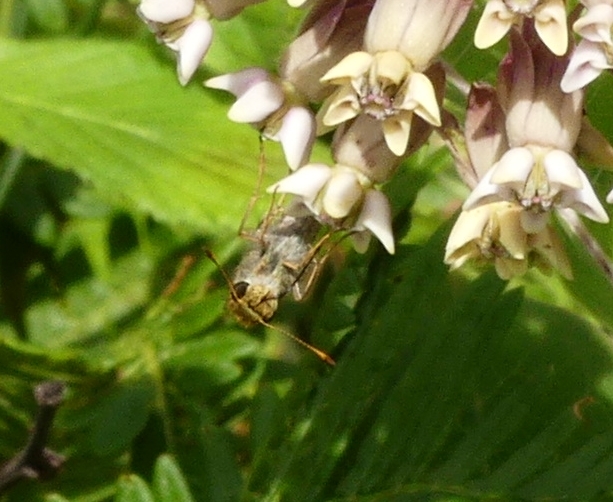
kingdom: Animalia
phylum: Arthropoda
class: Insecta
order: Lepidoptera
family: Hesperiidae
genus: Euphyes
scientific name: Euphyes vestris
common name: Dun skipper
